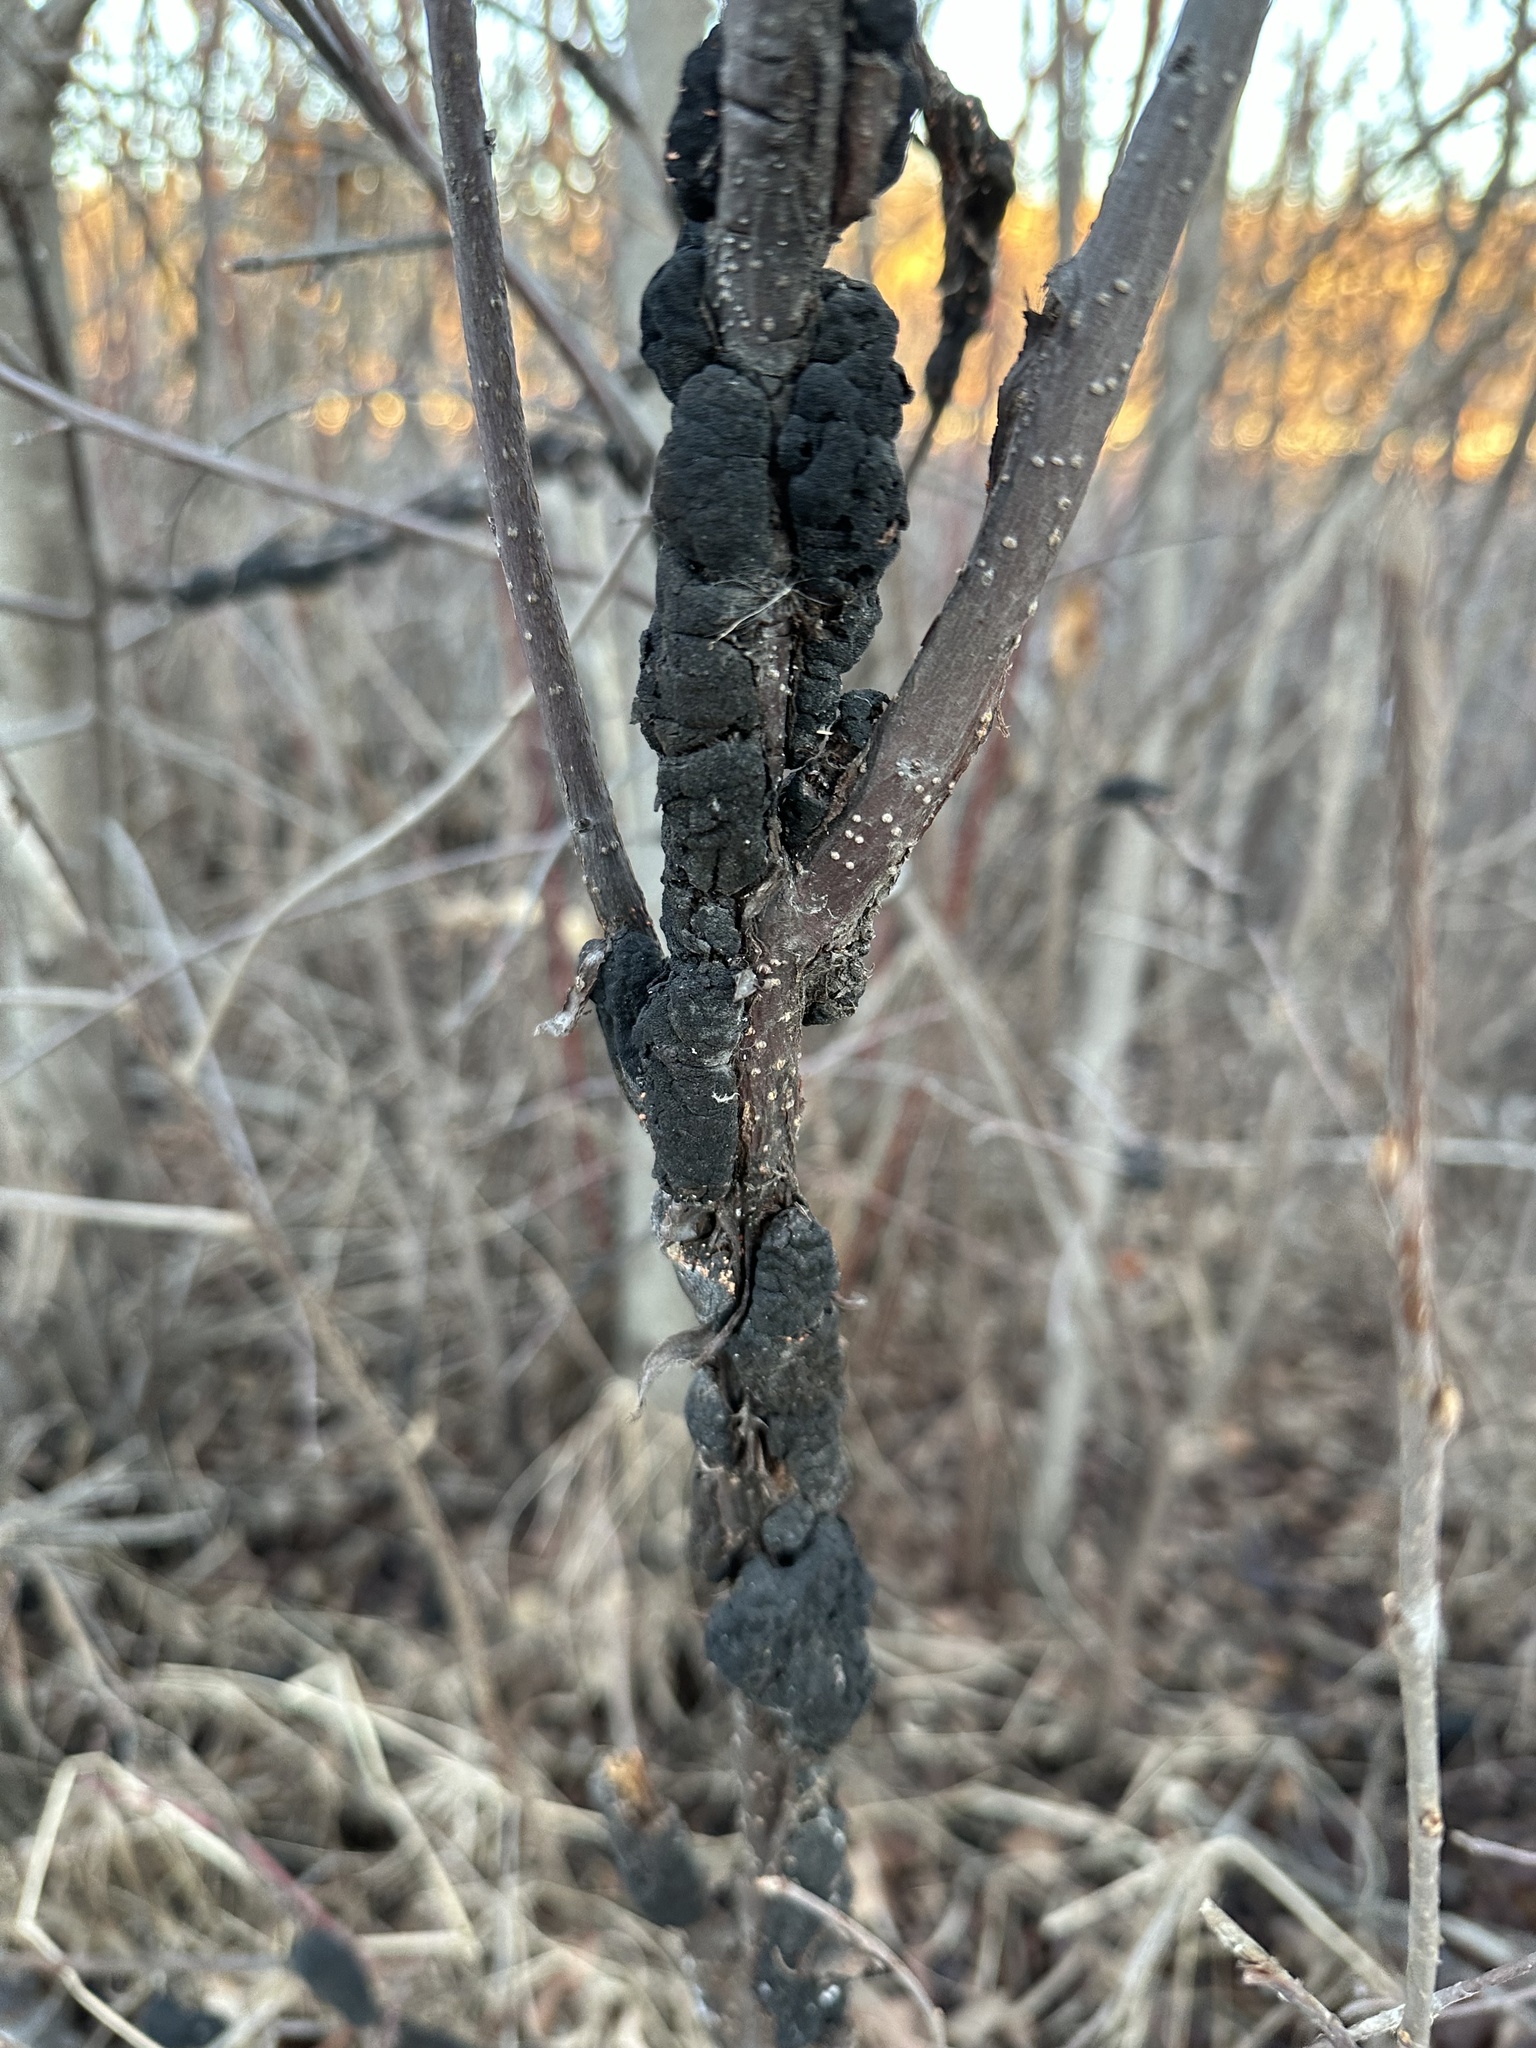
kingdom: Fungi
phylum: Ascomycota
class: Dothideomycetes
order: Venturiales
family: Venturiaceae
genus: Apiosporina
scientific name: Apiosporina morbosa
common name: Black knot
